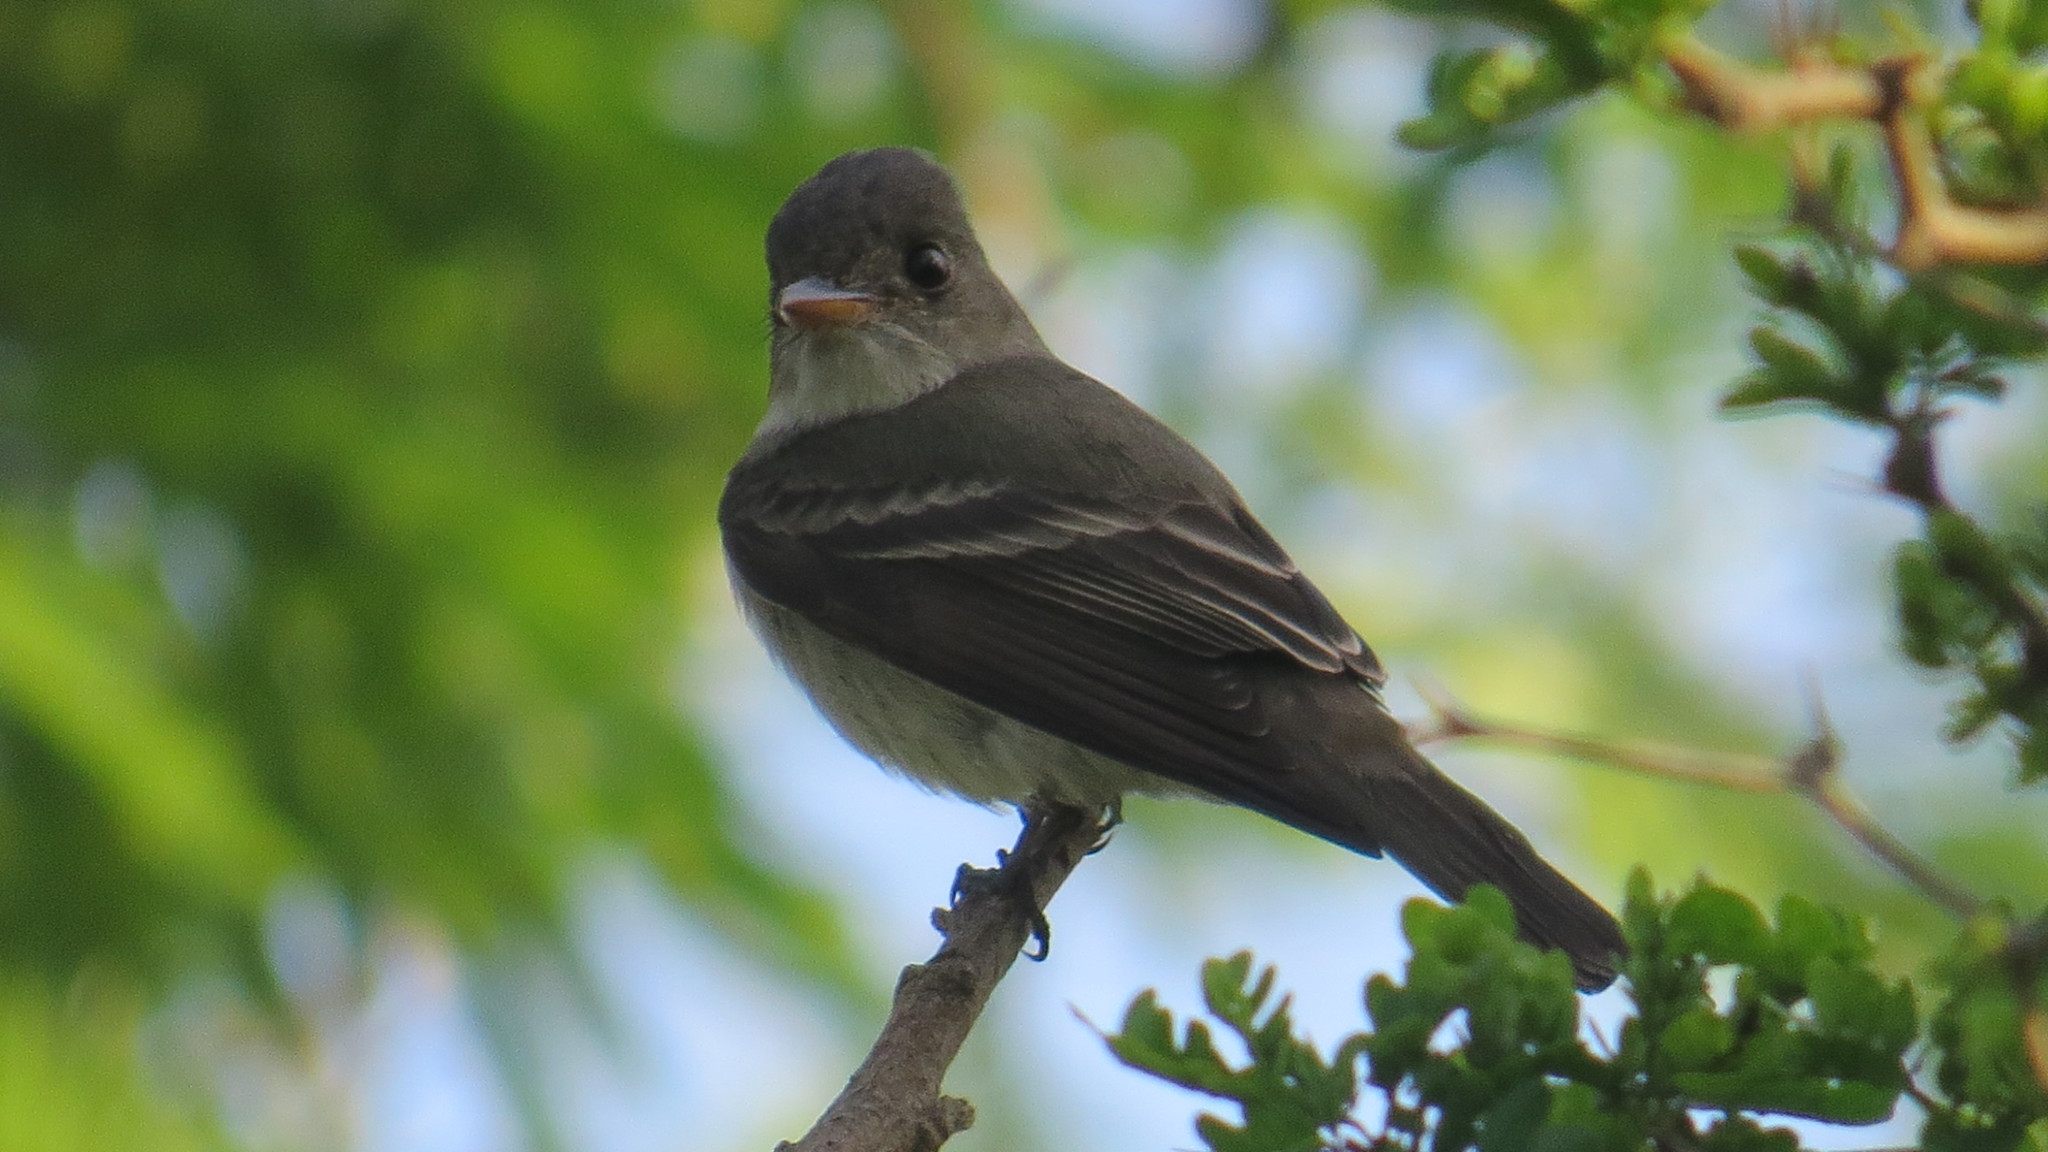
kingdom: Animalia
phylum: Chordata
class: Aves
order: Passeriformes
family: Tyrannidae
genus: Contopus
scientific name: Contopus virens
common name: Eastern wood-pewee
